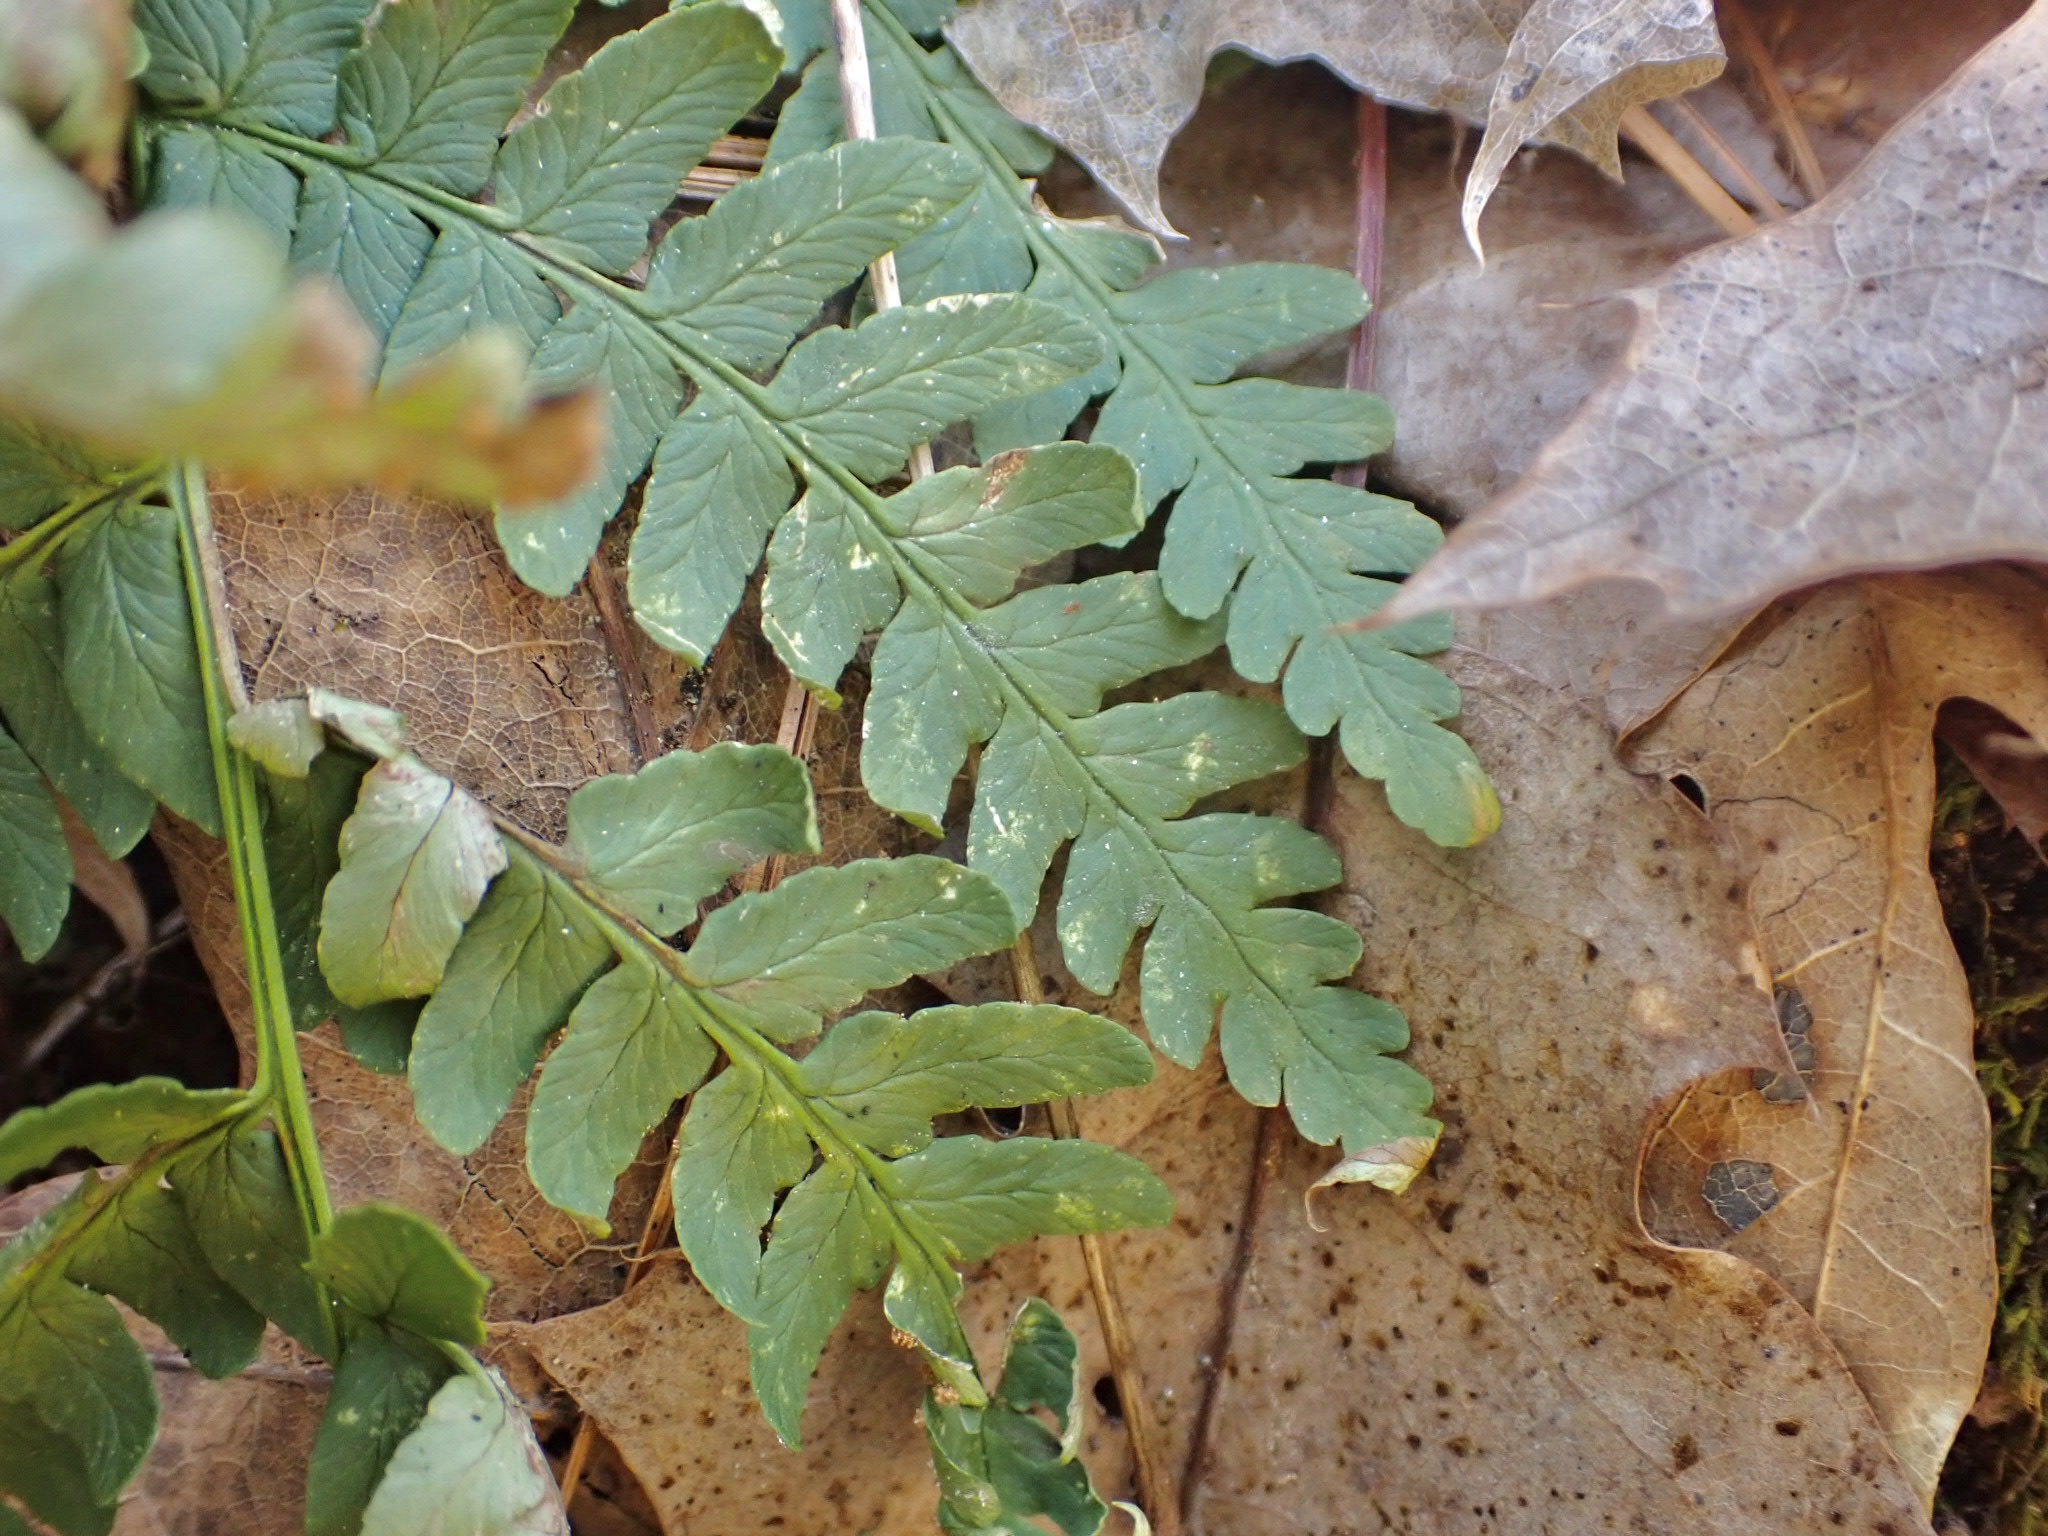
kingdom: Plantae
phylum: Tracheophyta
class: Polypodiopsida
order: Polypodiales
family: Dryopteridaceae
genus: Dryopteris
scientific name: Dryopteris marginalis
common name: Marginal wood fern
